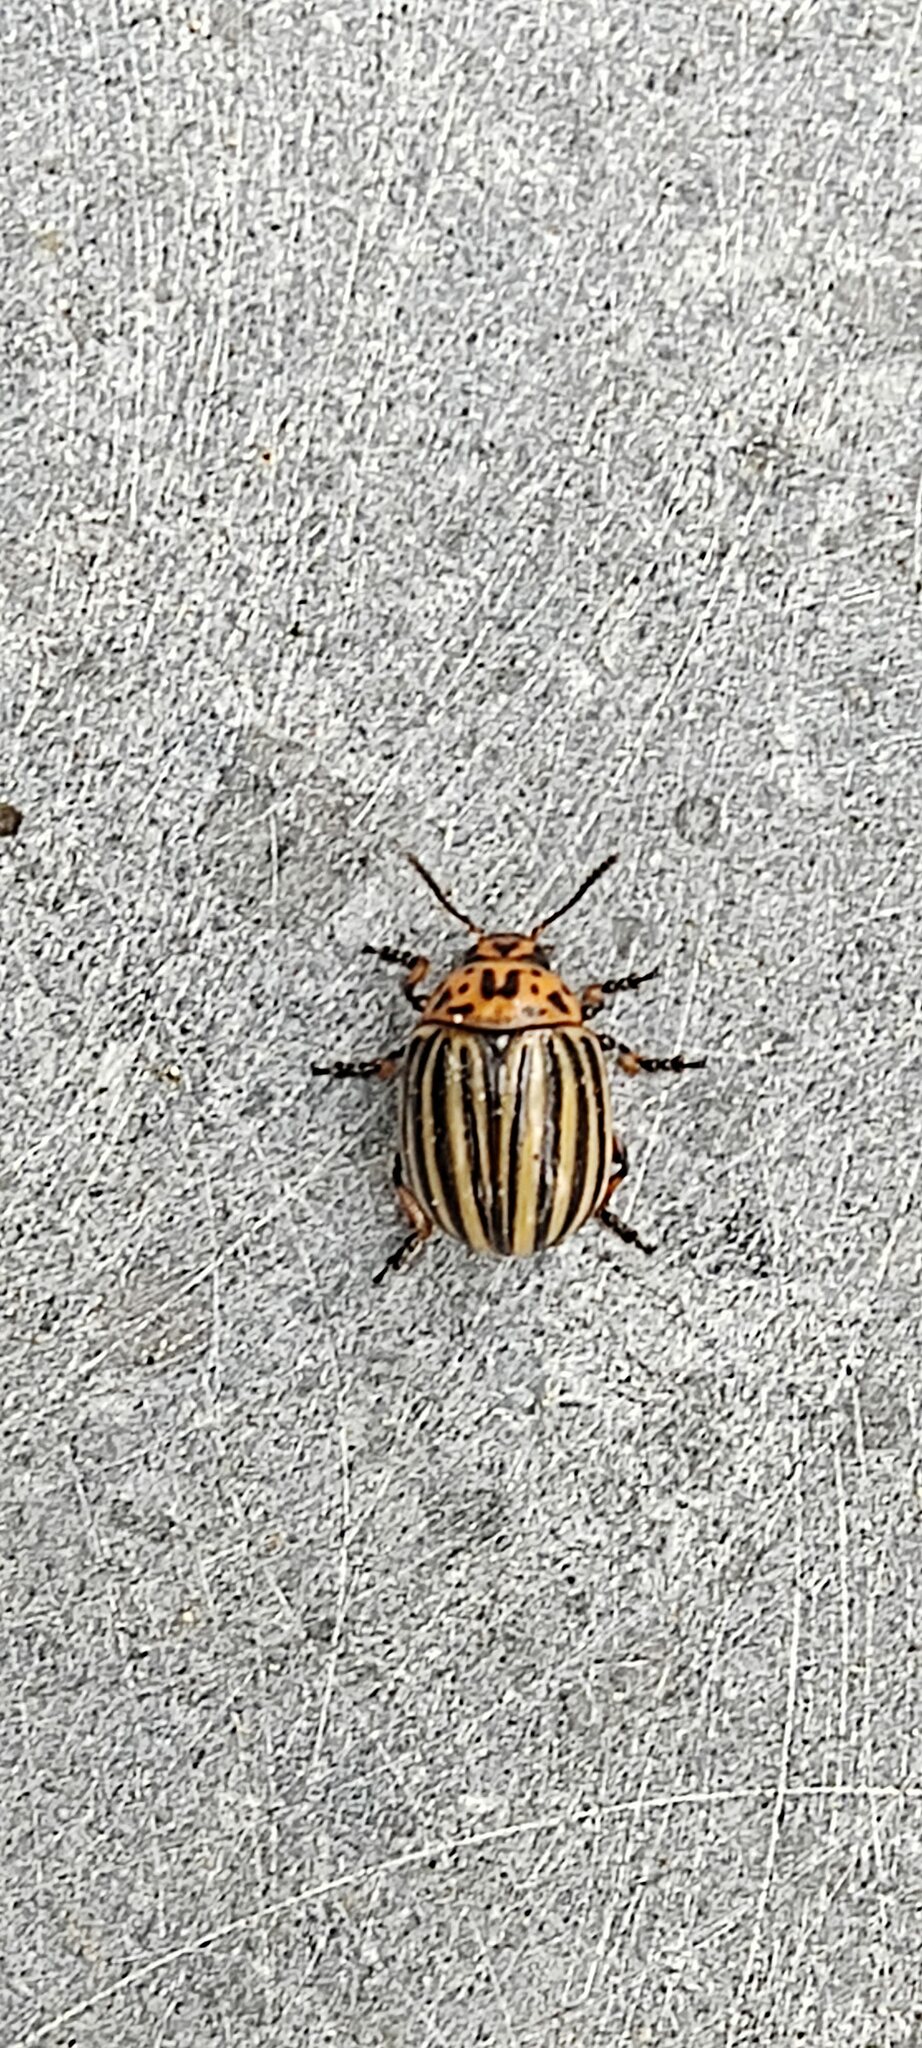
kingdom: Animalia
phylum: Arthropoda
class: Insecta
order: Coleoptera
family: Chrysomelidae
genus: Leptinotarsa
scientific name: Leptinotarsa decemlineata
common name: Colorado potato beetle
